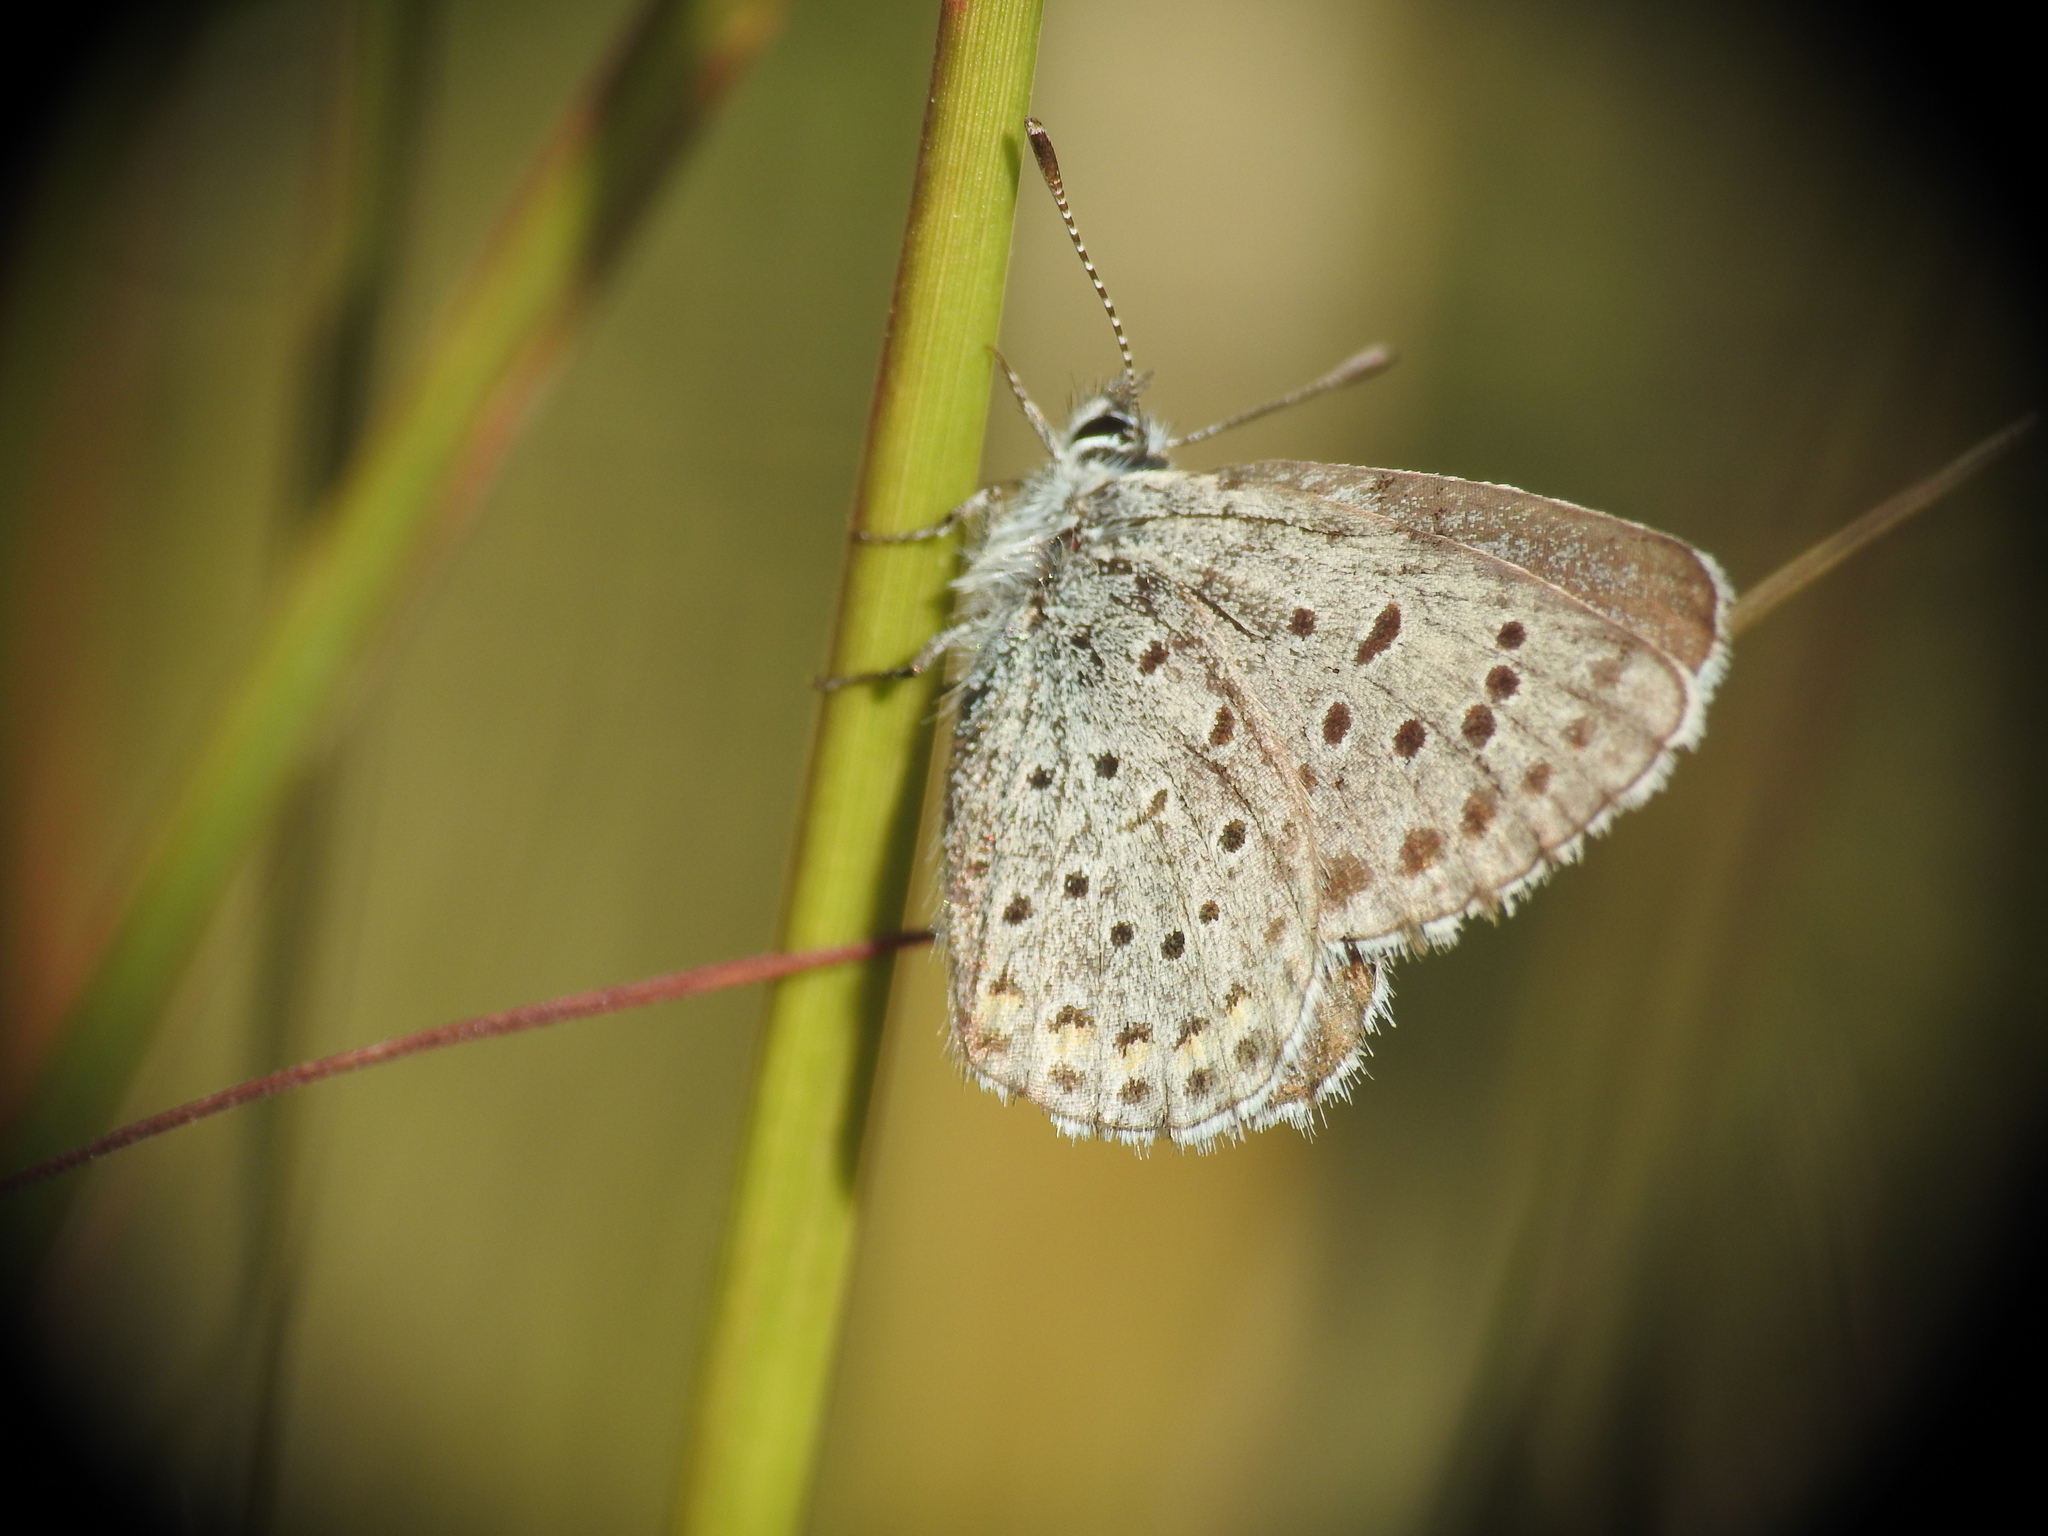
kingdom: Animalia
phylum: Arthropoda
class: Insecta
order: Lepidoptera
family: Lycaenidae
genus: Pseudophilotes
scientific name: Pseudophilotes baton
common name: Baton blue
